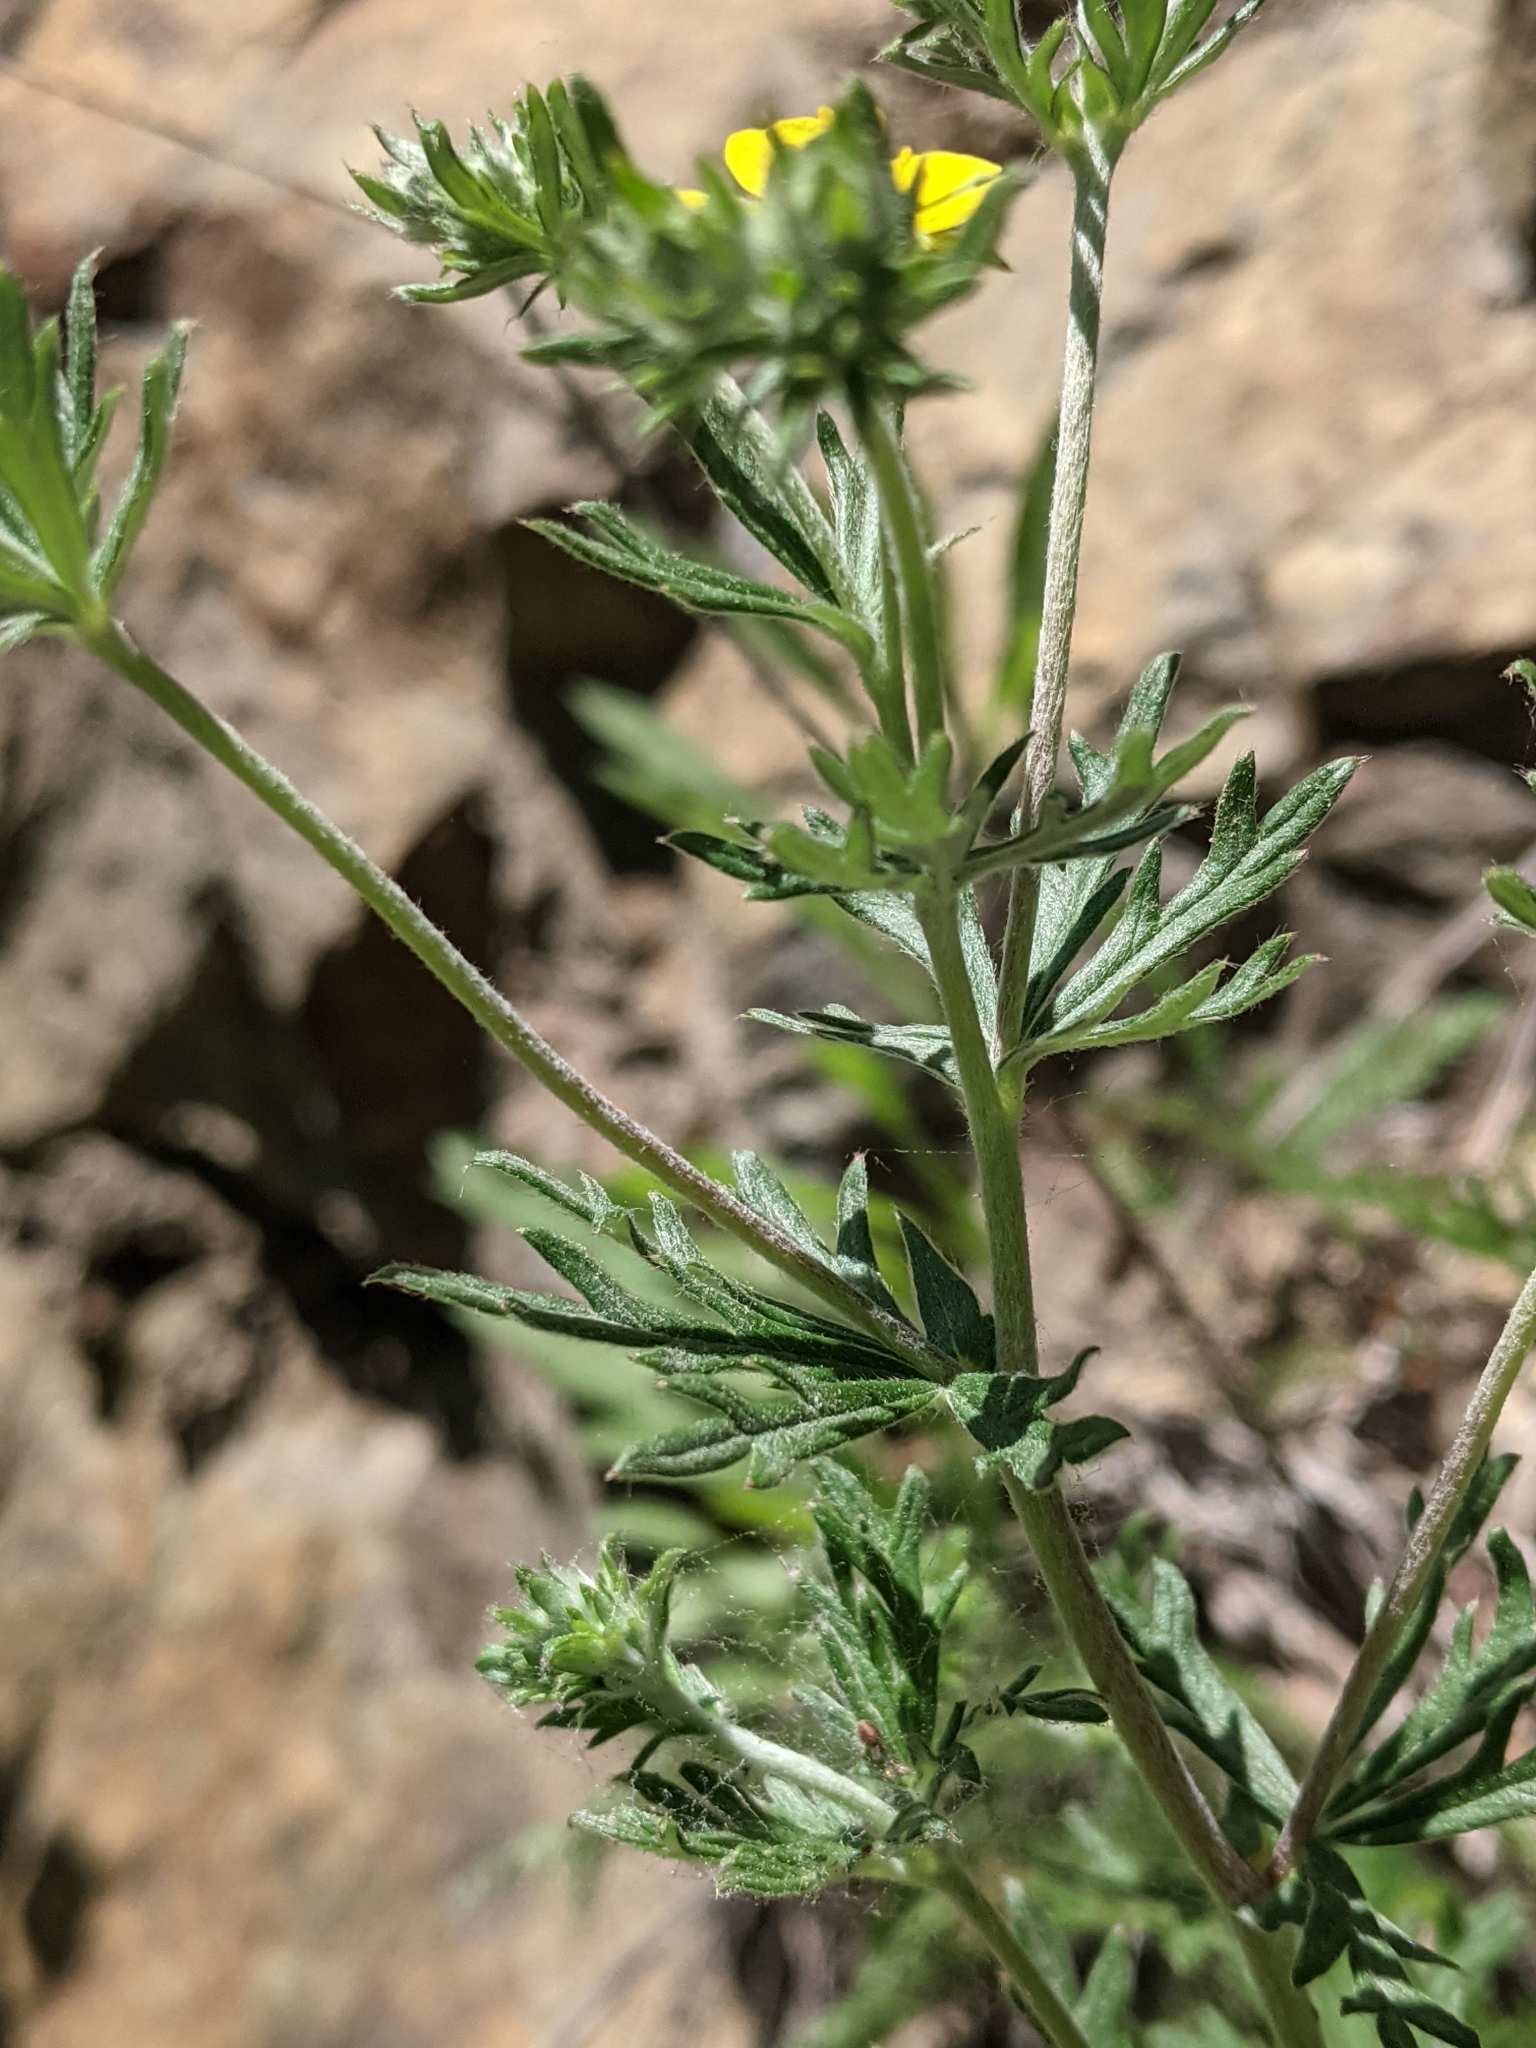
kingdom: Plantae
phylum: Tracheophyta
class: Magnoliopsida
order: Rosales
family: Rosaceae
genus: Potentilla
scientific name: Potentilla argentea
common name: Hoary cinquefoil
